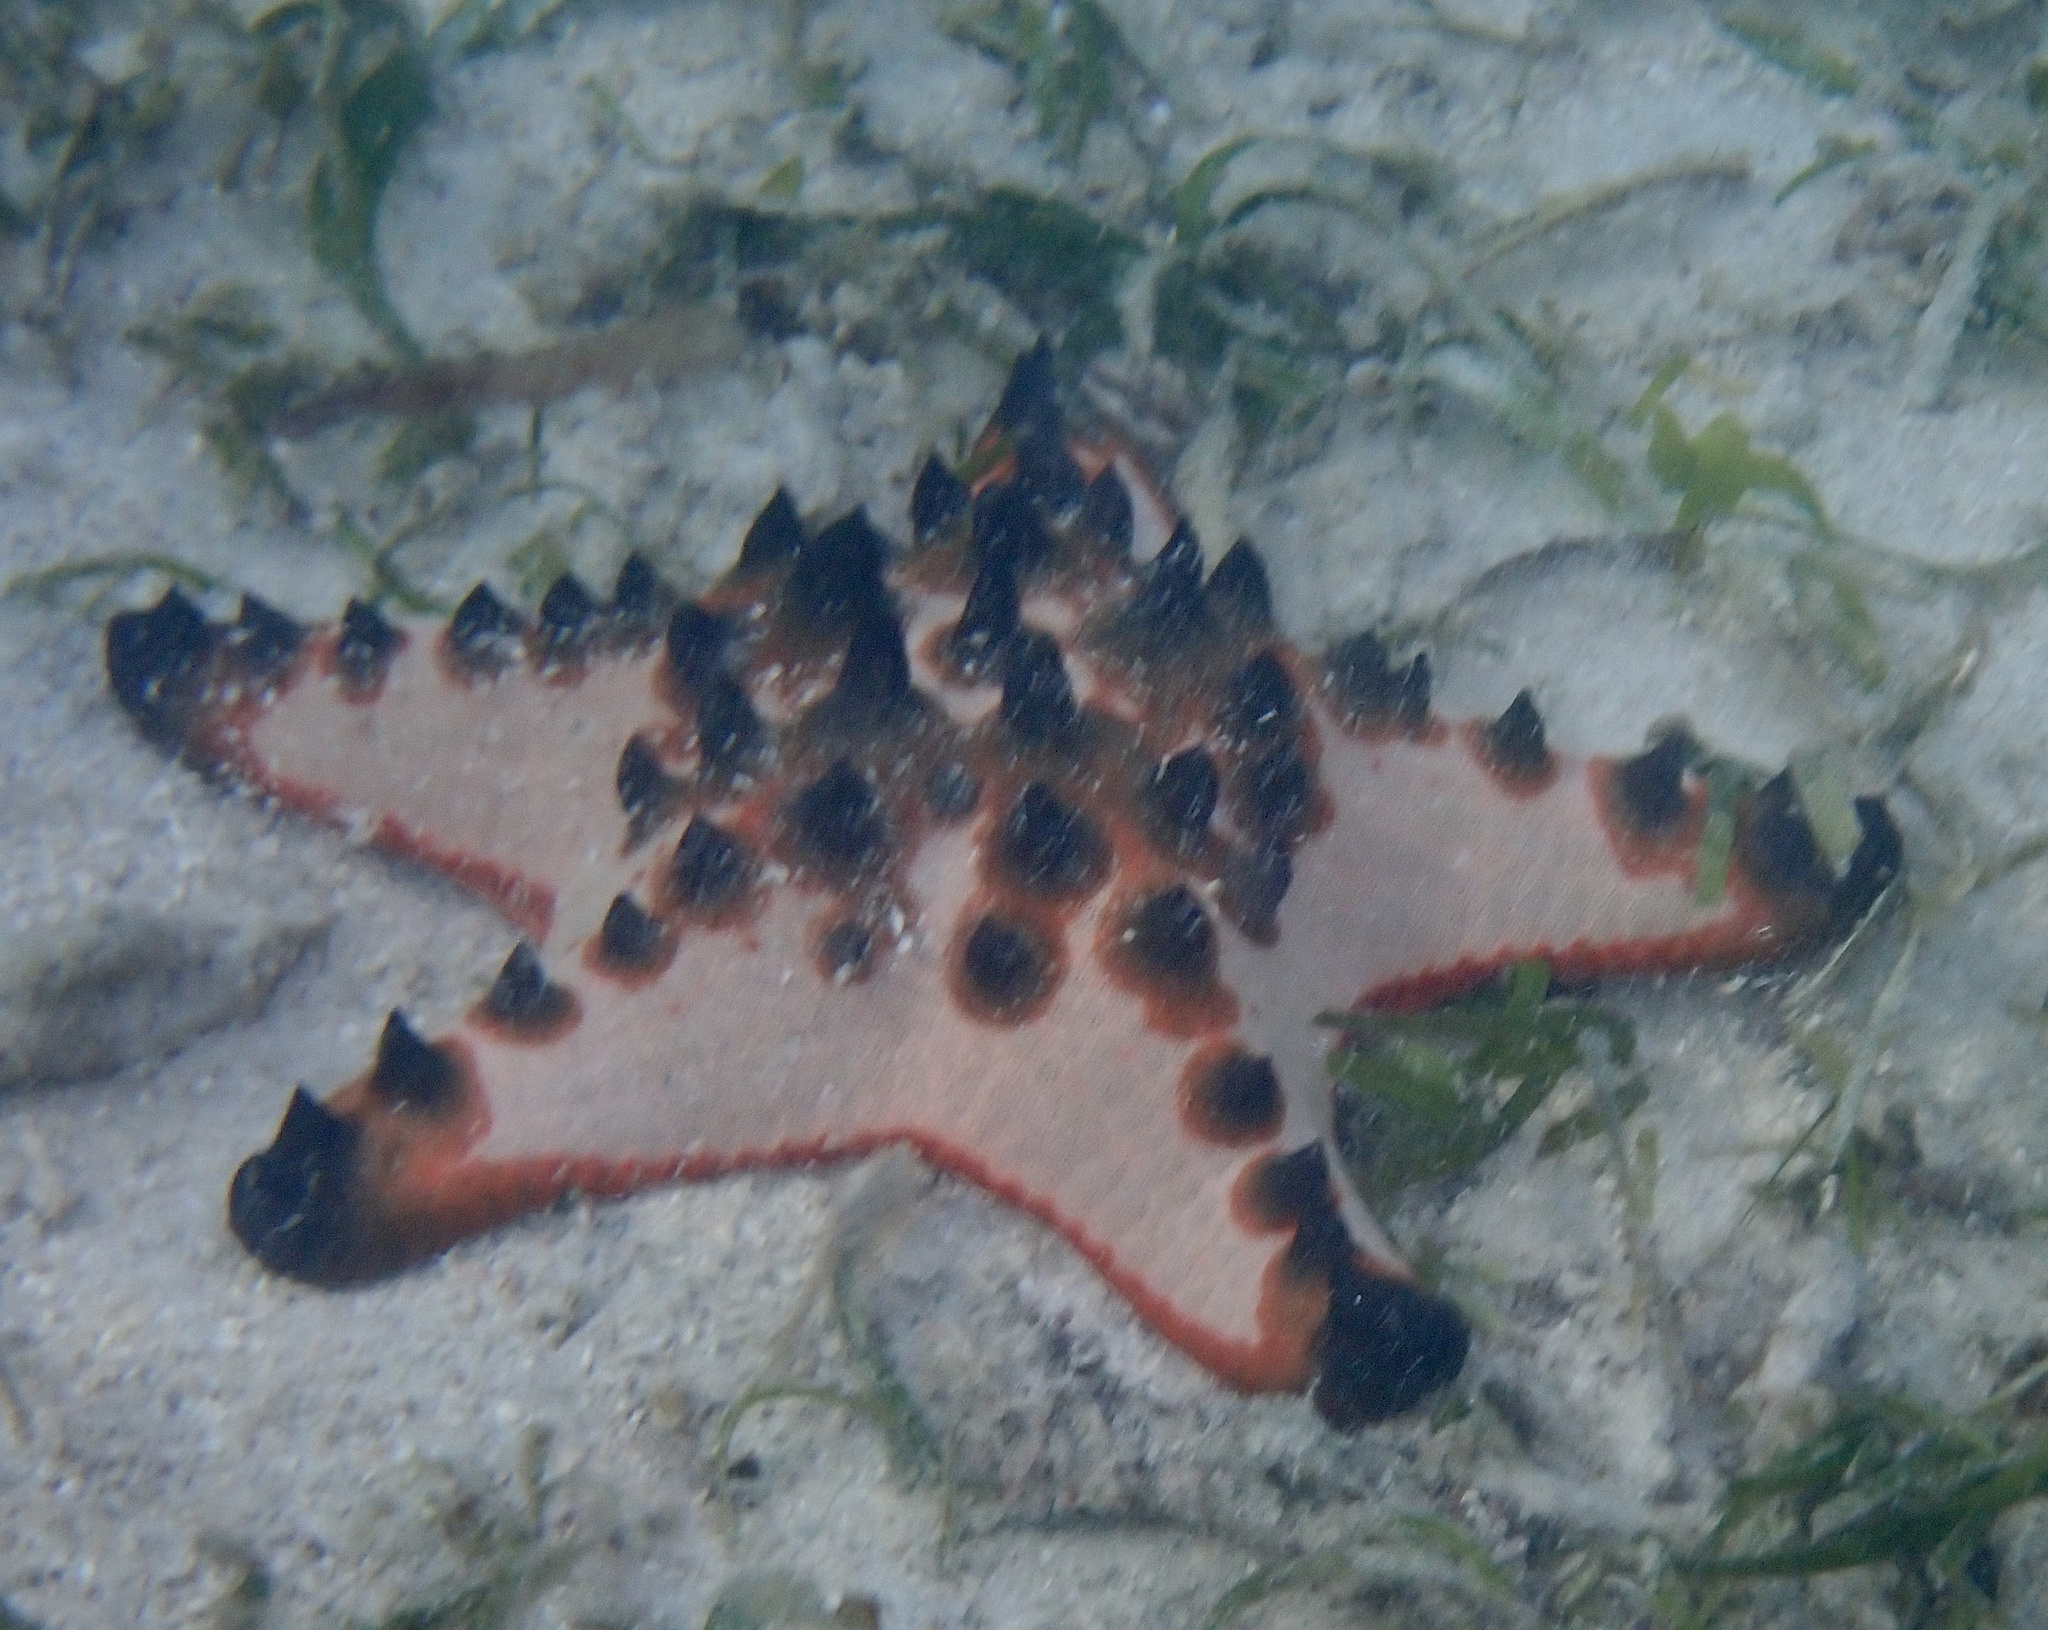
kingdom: Animalia
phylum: Echinodermata
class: Asteroidea
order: Valvatida
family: Oreasteridae
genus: Protoreaster
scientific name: Protoreaster nodosus
